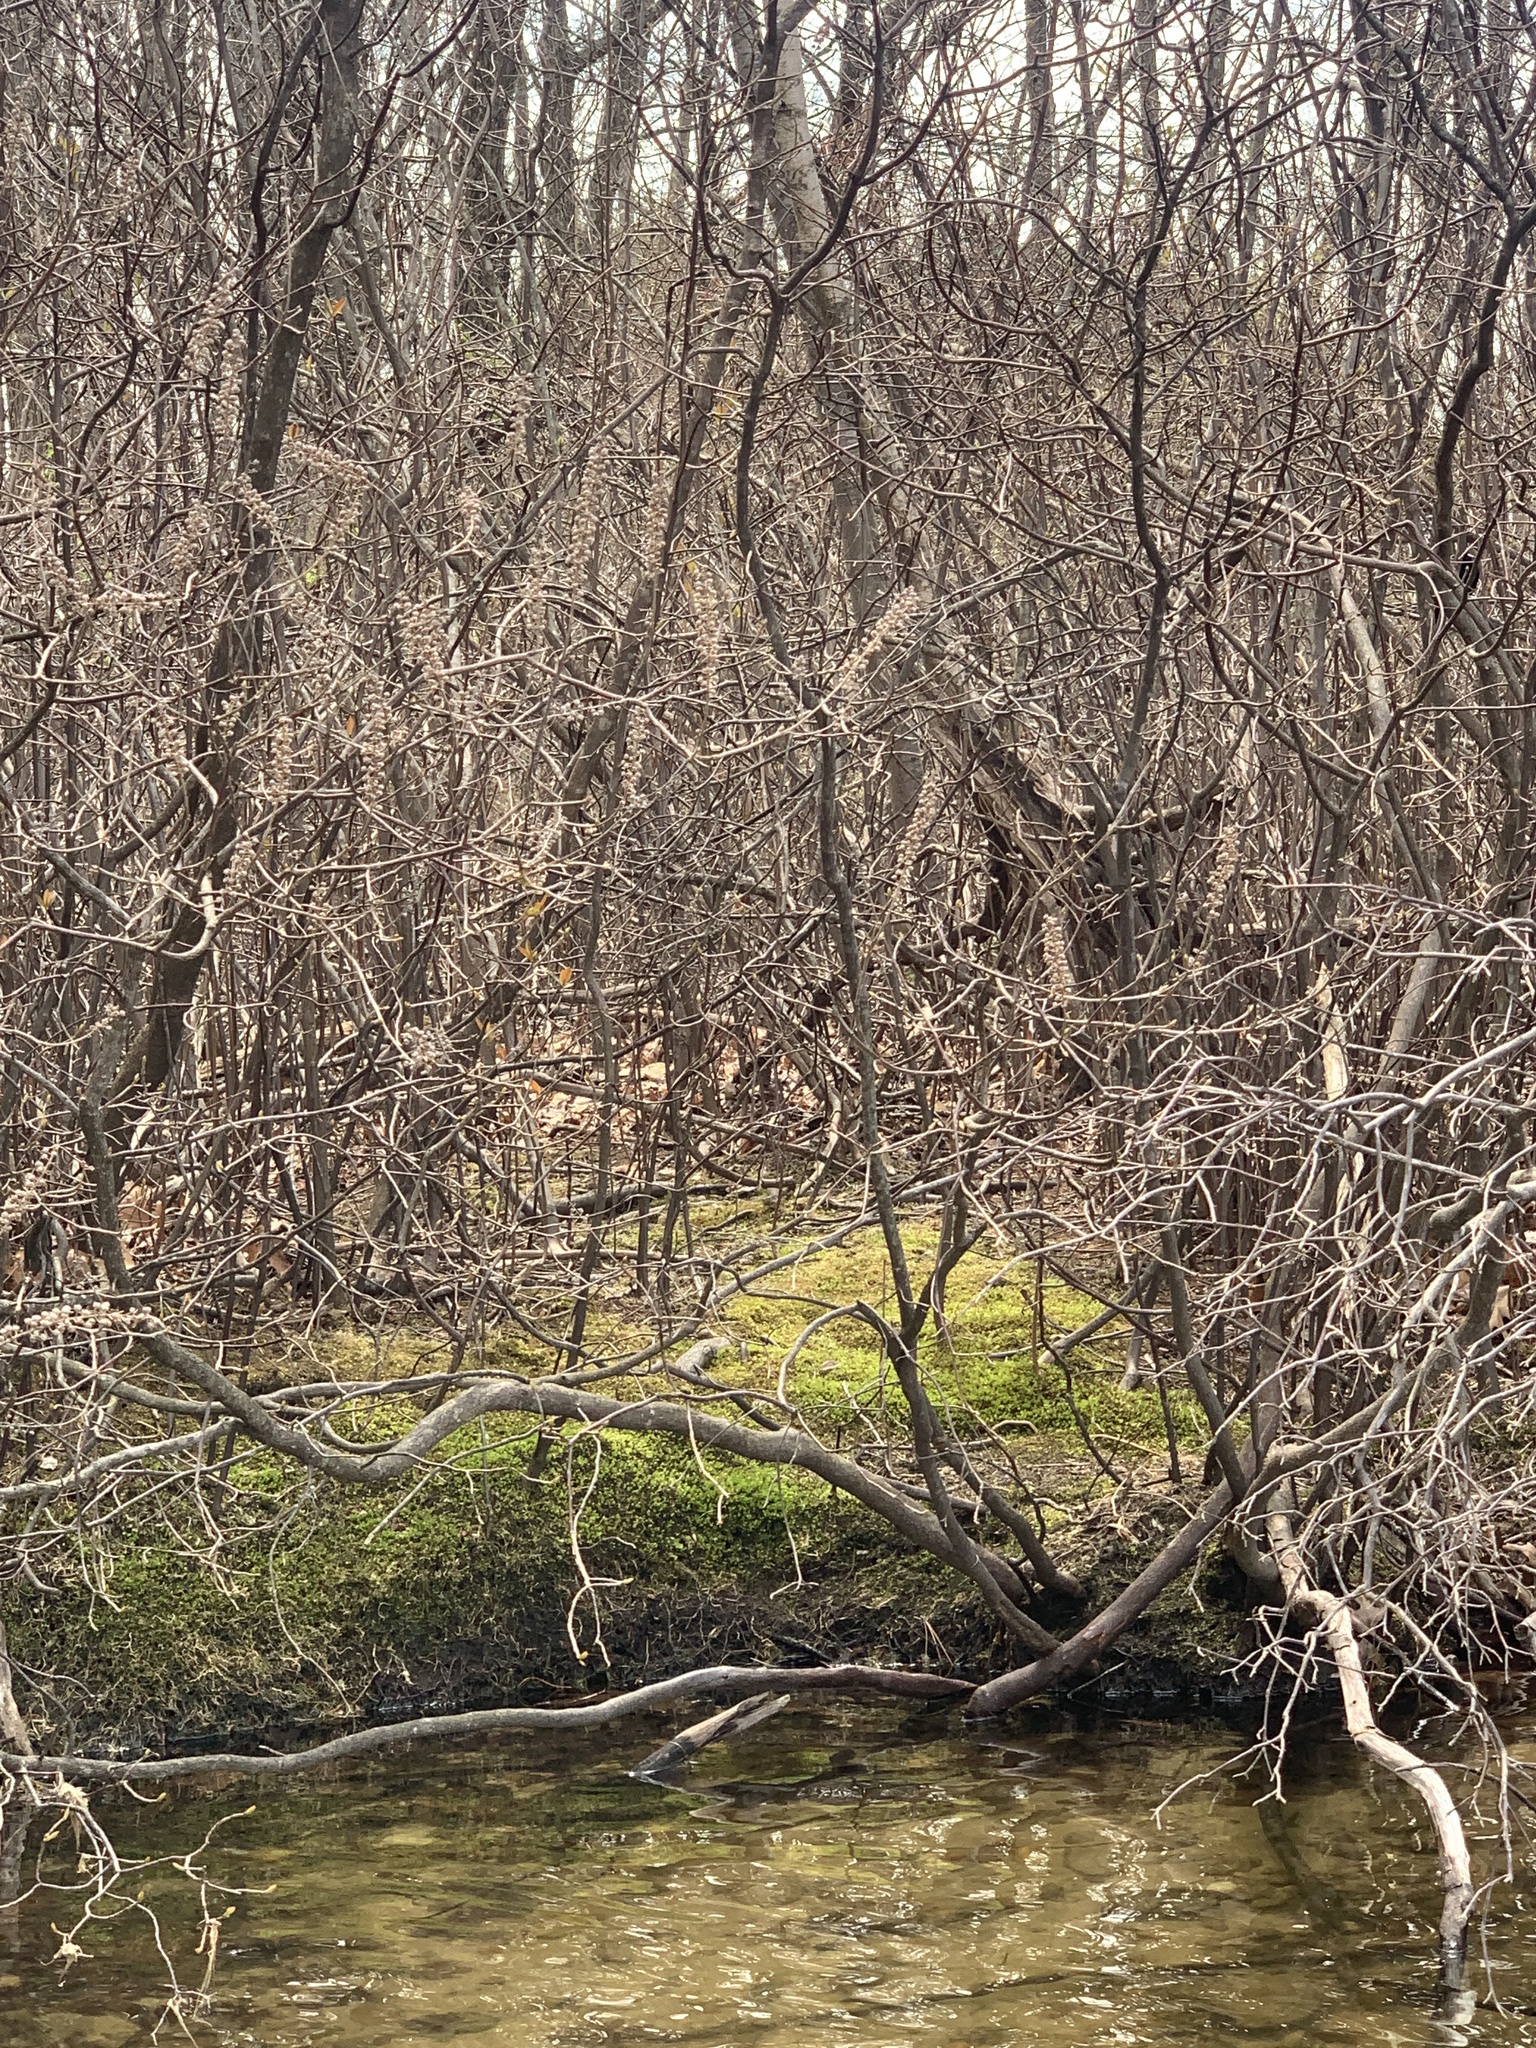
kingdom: Plantae
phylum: Tracheophyta
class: Magnoliopsida
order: Ericales
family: Clethraceae
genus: Clethra
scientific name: Clethra alnifolia
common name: Sweet pepperbush
